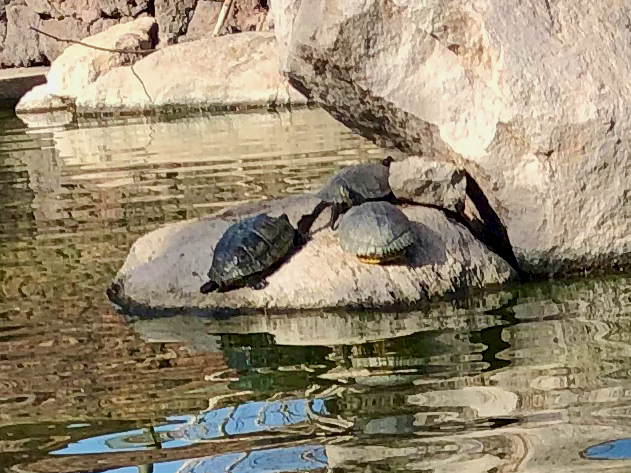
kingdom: Animalia
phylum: Chordata
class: Testudines
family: Emydidae
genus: Trachemys
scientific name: Trachemys scripta
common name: Slider
